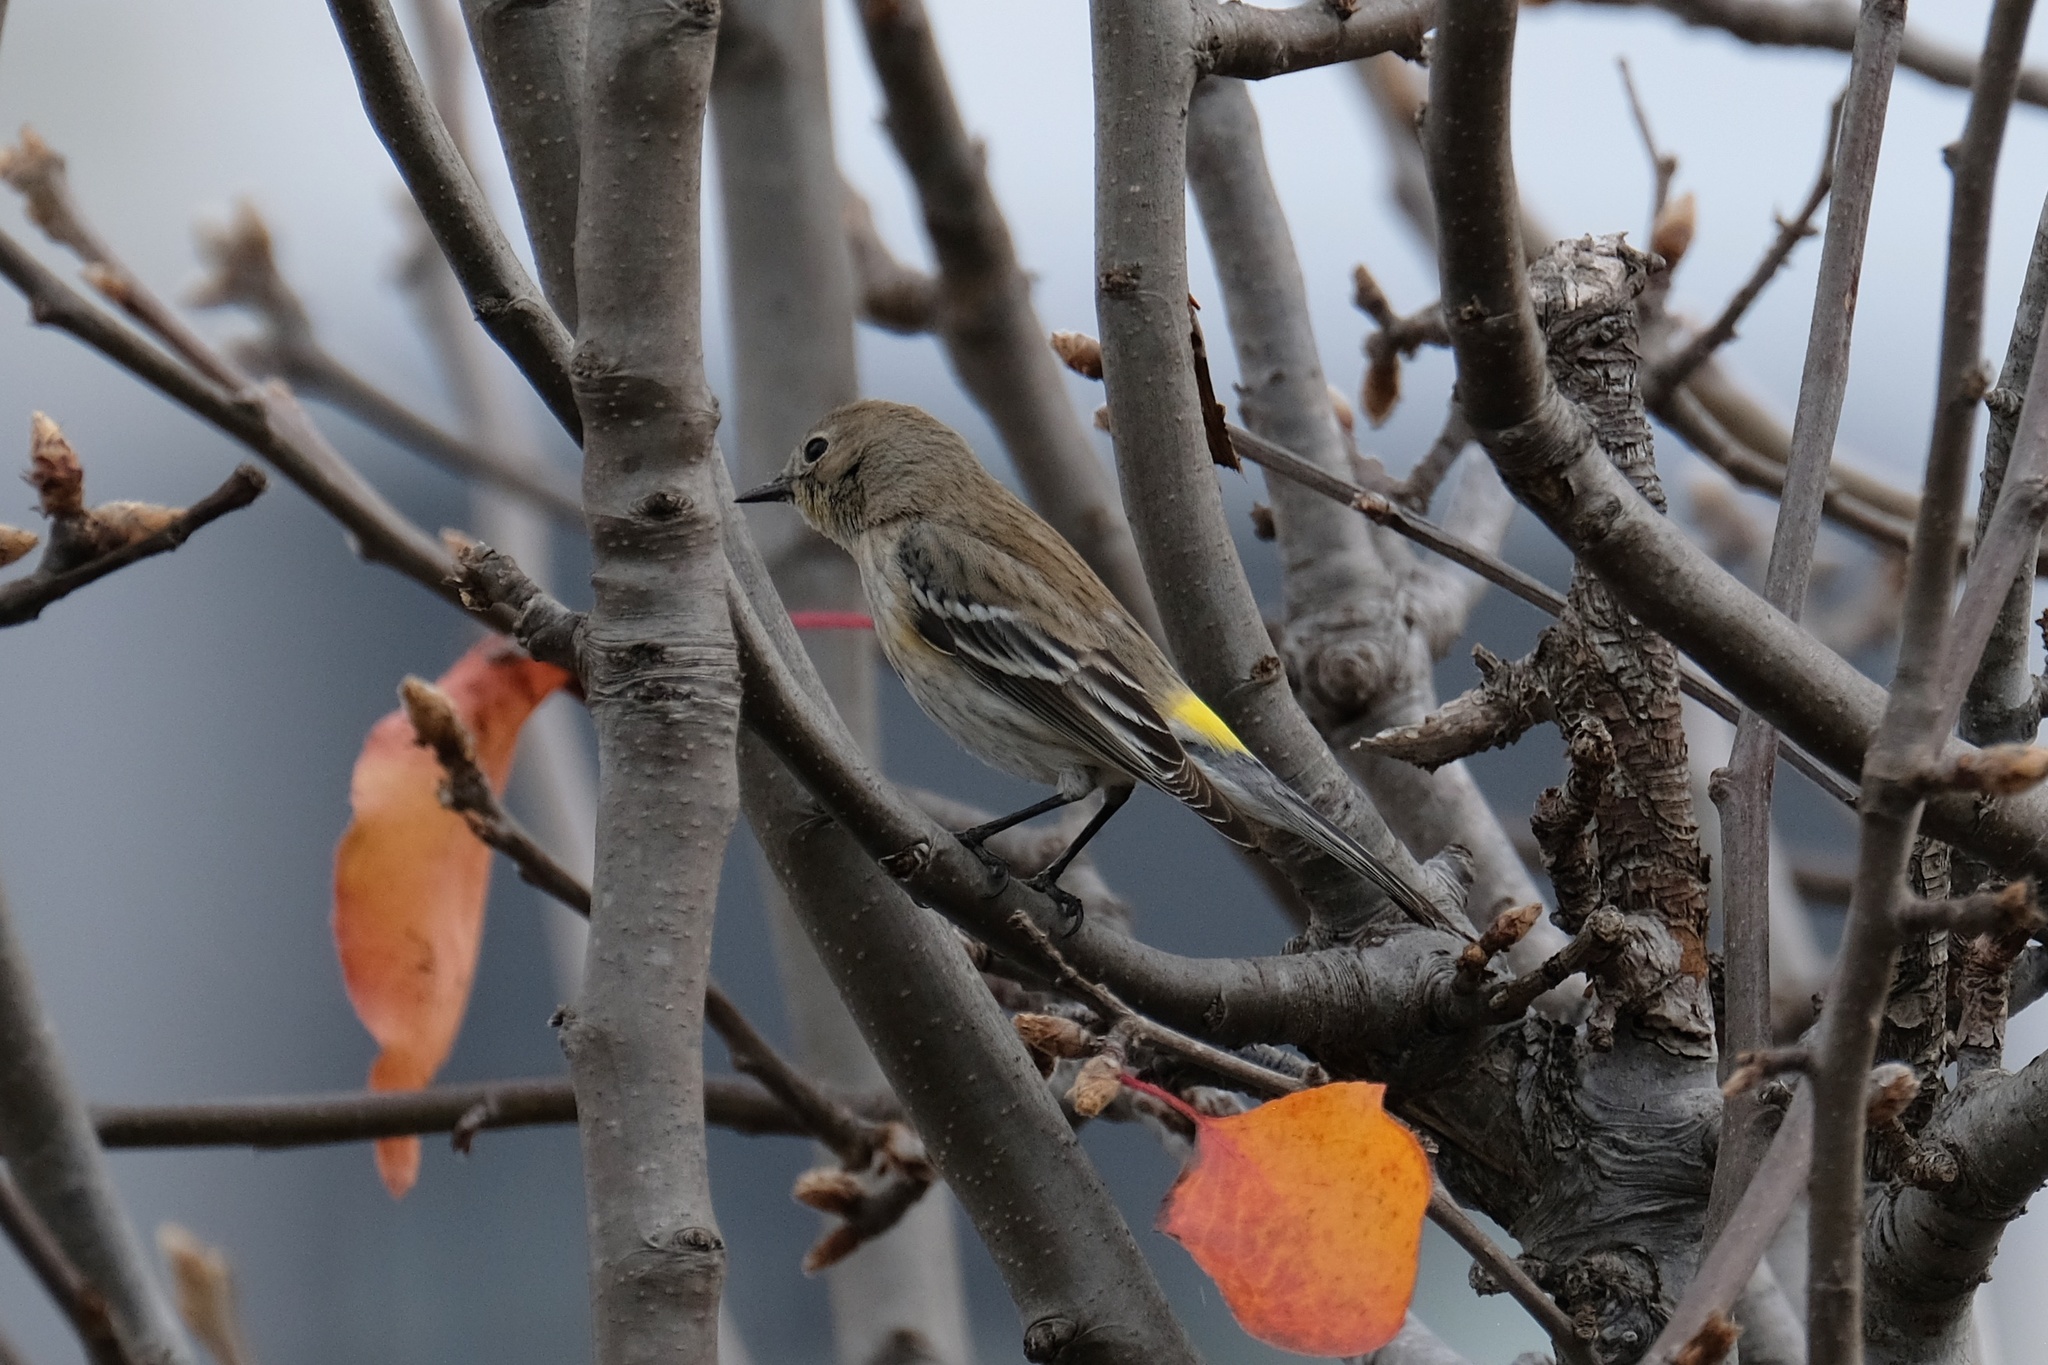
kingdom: Animalia
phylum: Chordata
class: Aves
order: Passeriformes
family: Parulidae
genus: Setophaga
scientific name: Setophaga coronata
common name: Myrtle warbler
